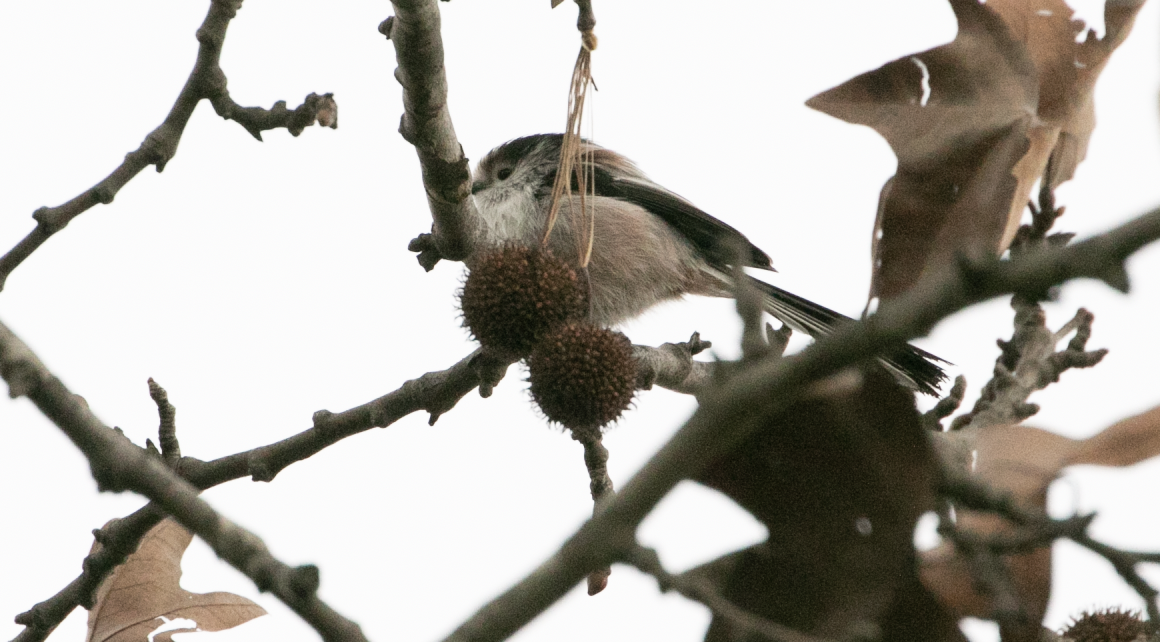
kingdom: Animalia
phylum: Chordata
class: Aves
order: Passeriformes
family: Aegithalidae
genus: Aegithalos
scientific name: Aegithalos caudatus
